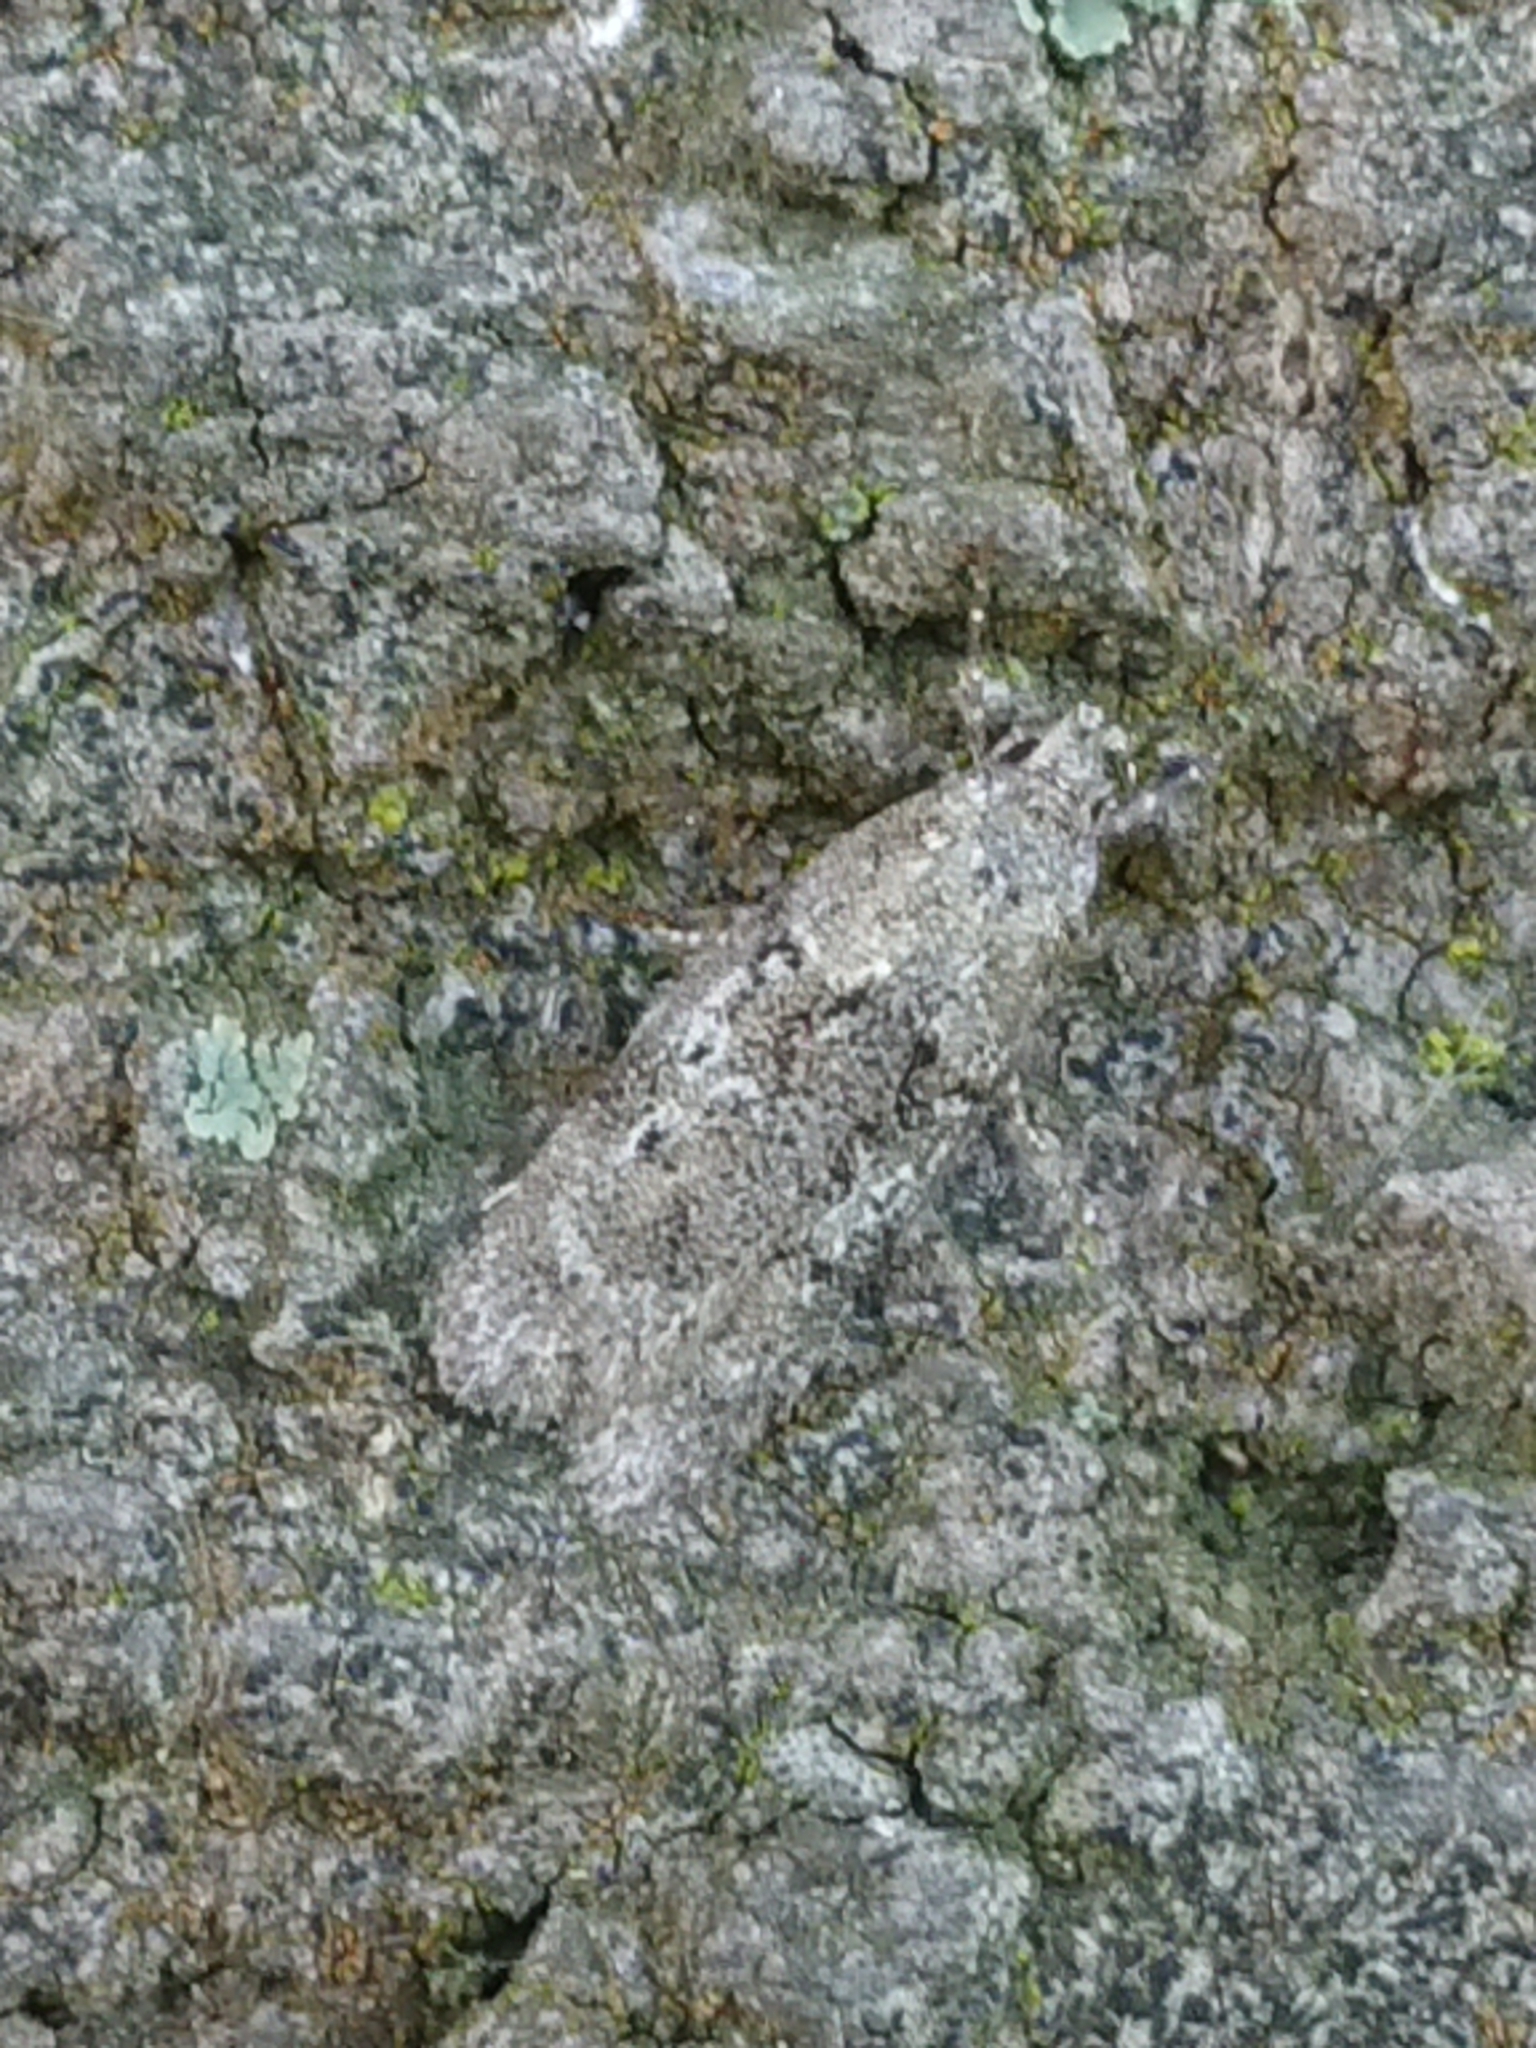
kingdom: Animalia
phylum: Arthropoda
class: Insecta
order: Lepidoptera
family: Oecophoridae
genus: Izatha
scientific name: Izatha convulsella
